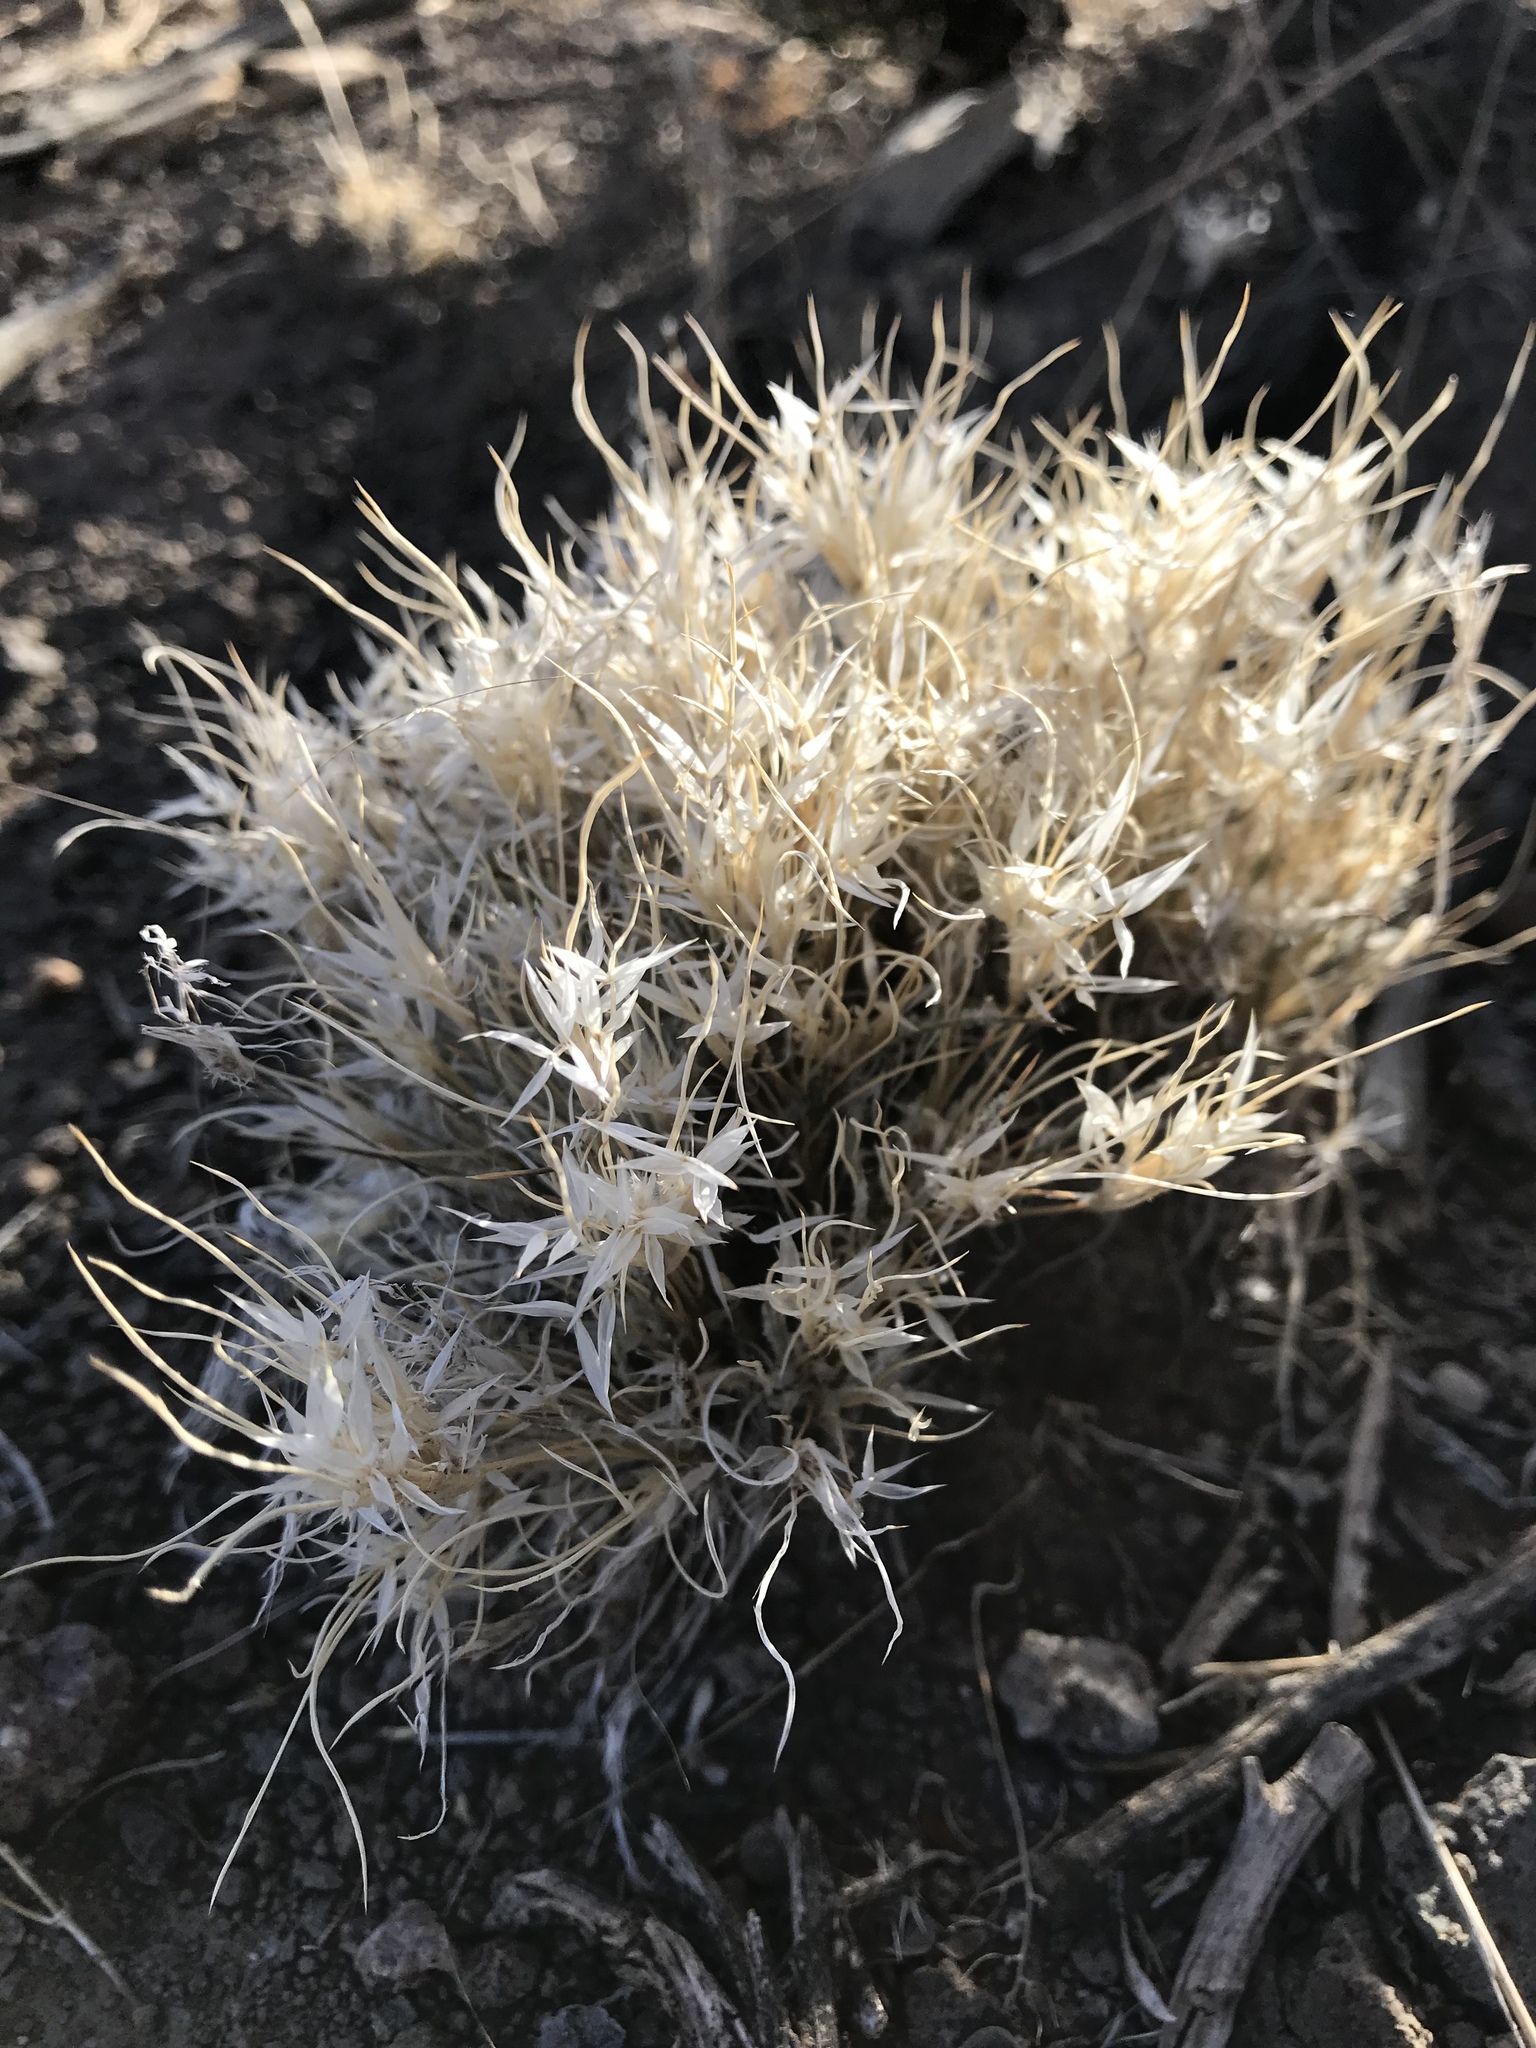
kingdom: Plantae
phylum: Tracheophyta
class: Liliopsida
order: Poales
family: Poaceae
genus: Dasyochloa
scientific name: Dasyochloa pulchella
